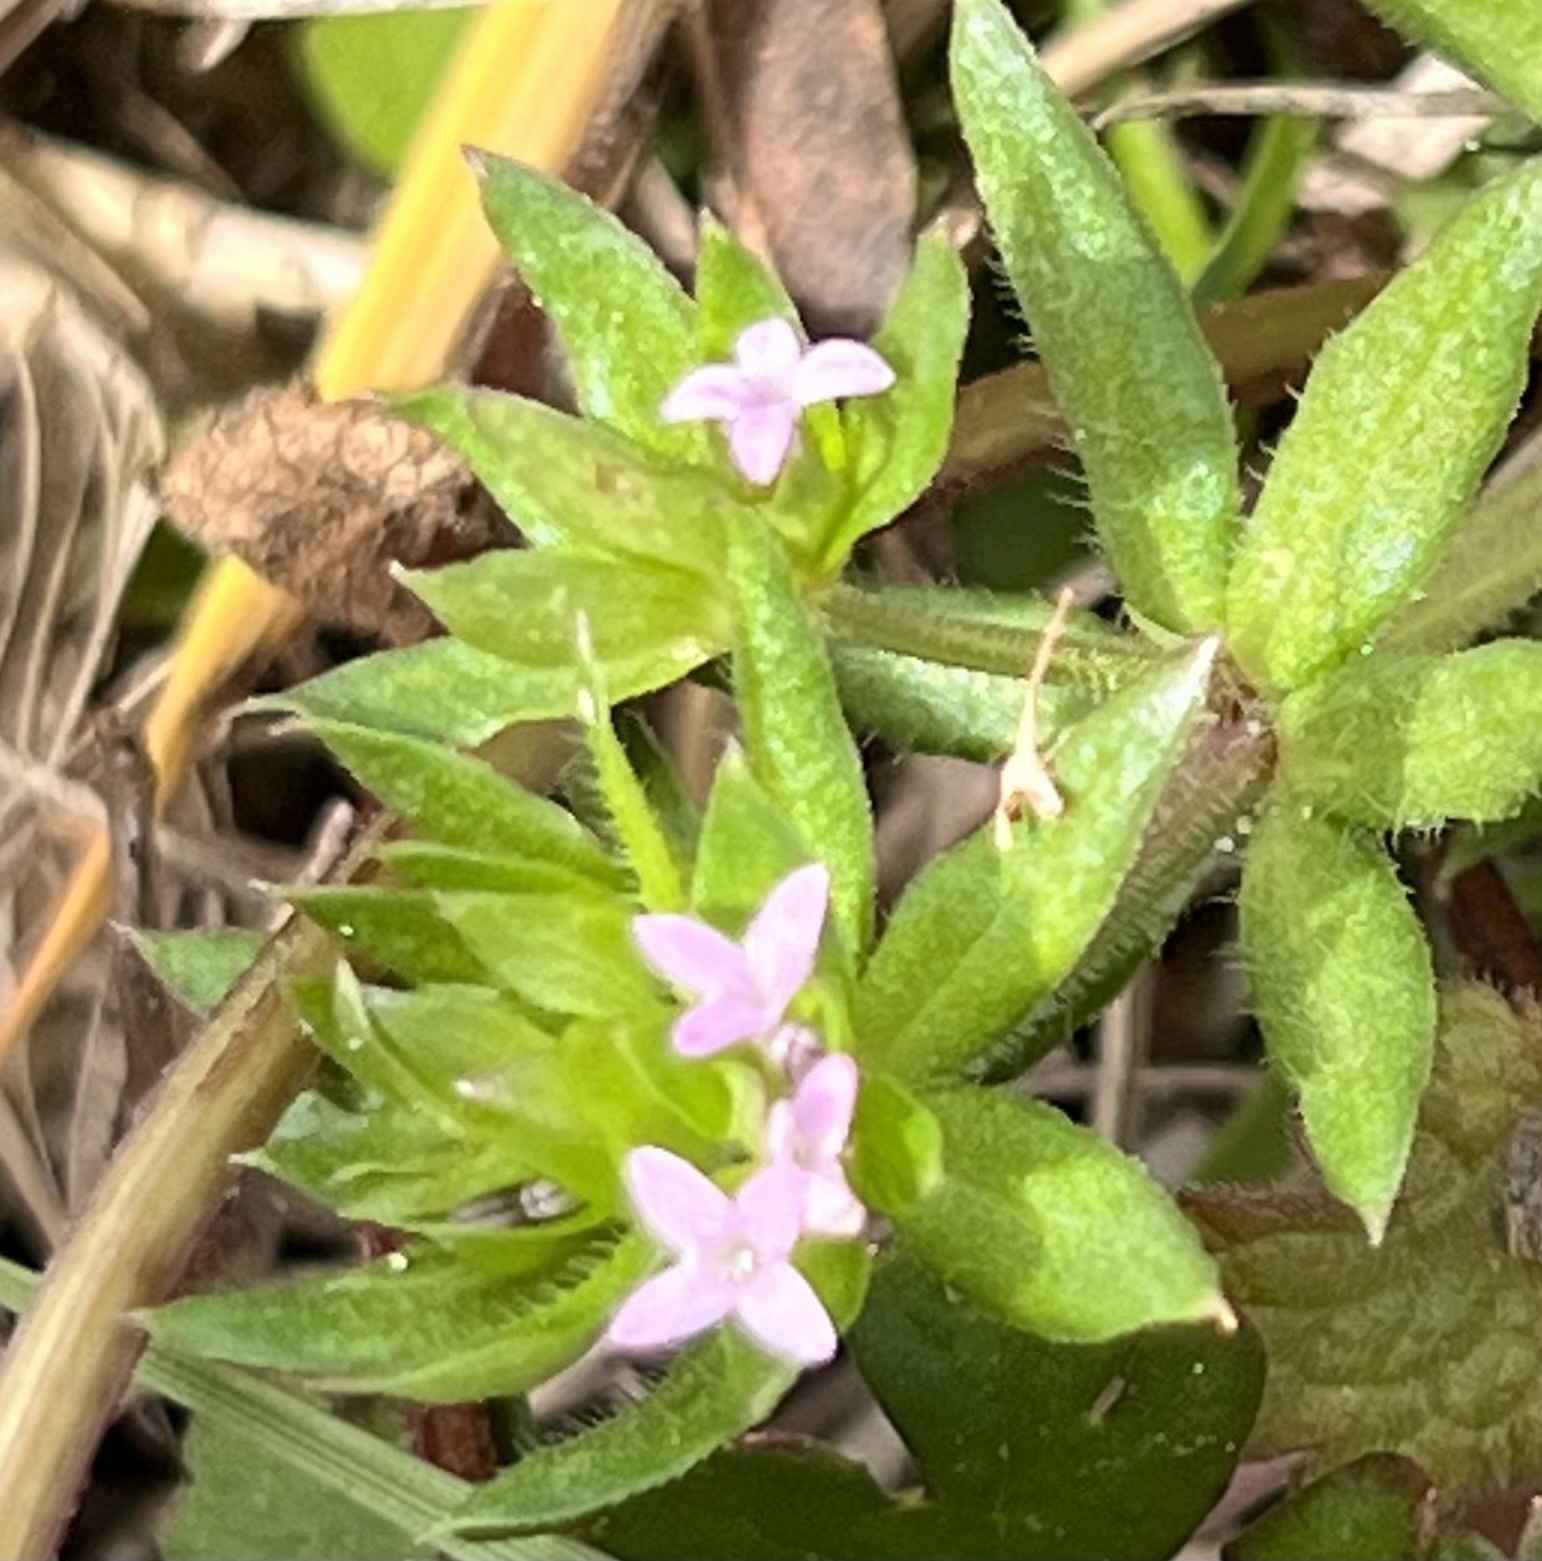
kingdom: Plantae
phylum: Tracheophyta
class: Magnoliopsida
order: Gentianales
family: Rubiaceae
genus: Sherardia
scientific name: Sherardia arvensis
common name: Field madder
